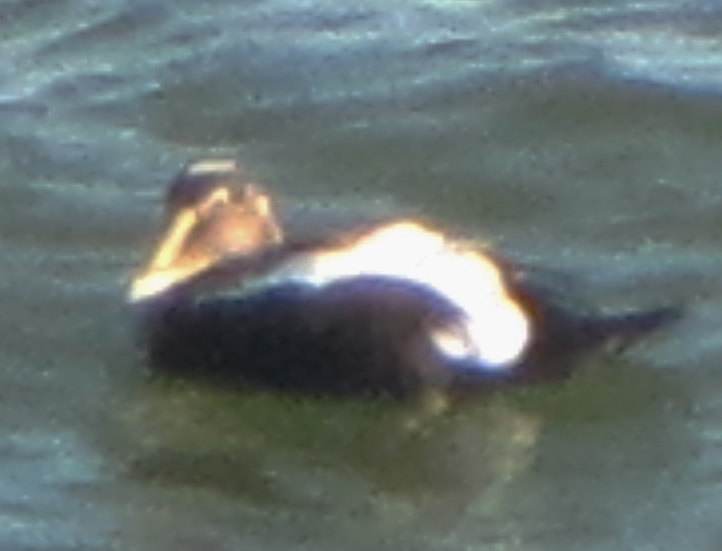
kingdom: Animalia
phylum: Chordata
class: Aves
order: Anseriformes
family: Anatidae
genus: Somateria
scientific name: Somateria mollissima
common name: Common eider
